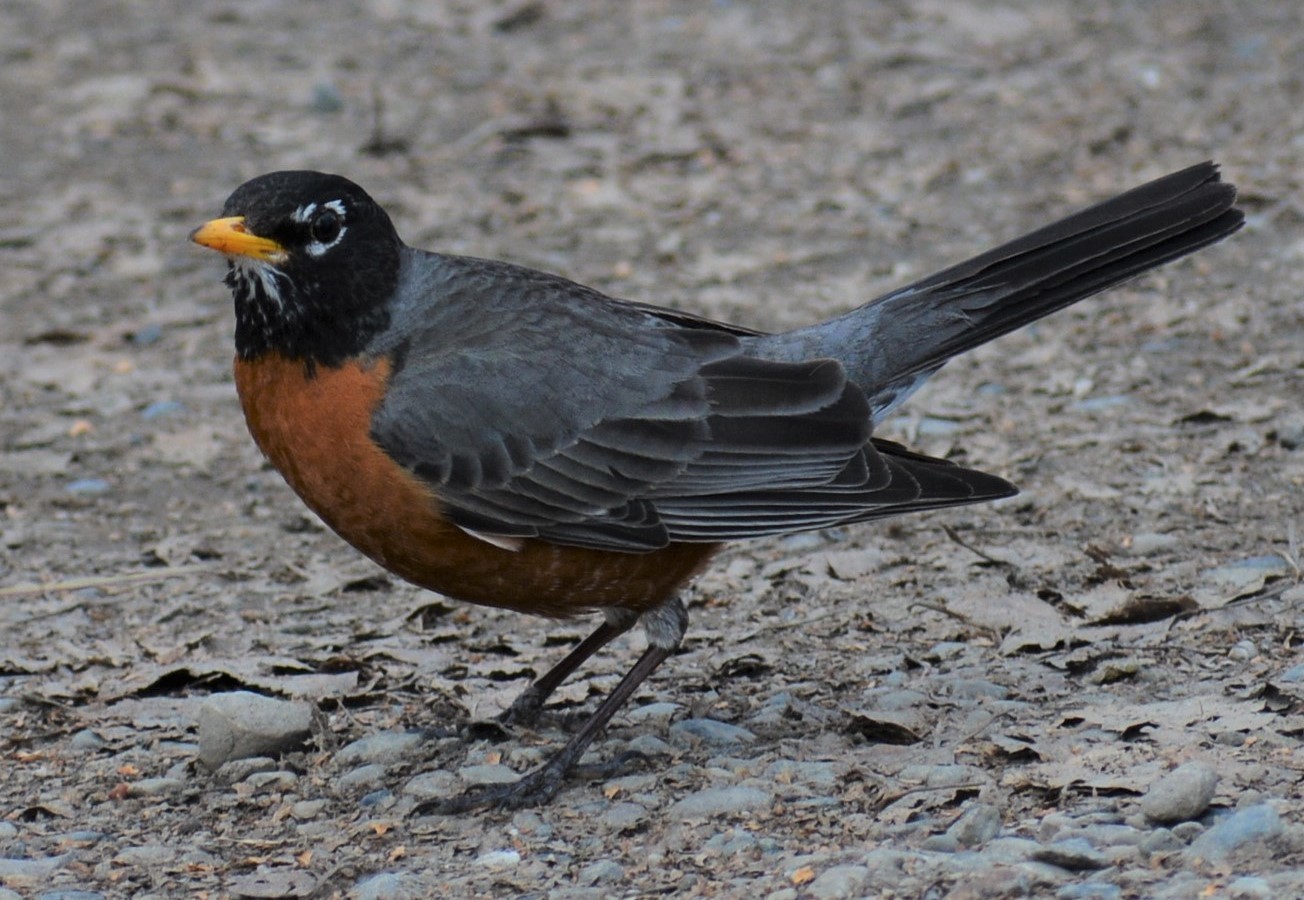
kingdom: Animalia
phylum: Chordata
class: Aves
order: Passeriformes
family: Turdidae
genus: Turdus
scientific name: Turdus migratorius
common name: American robin
